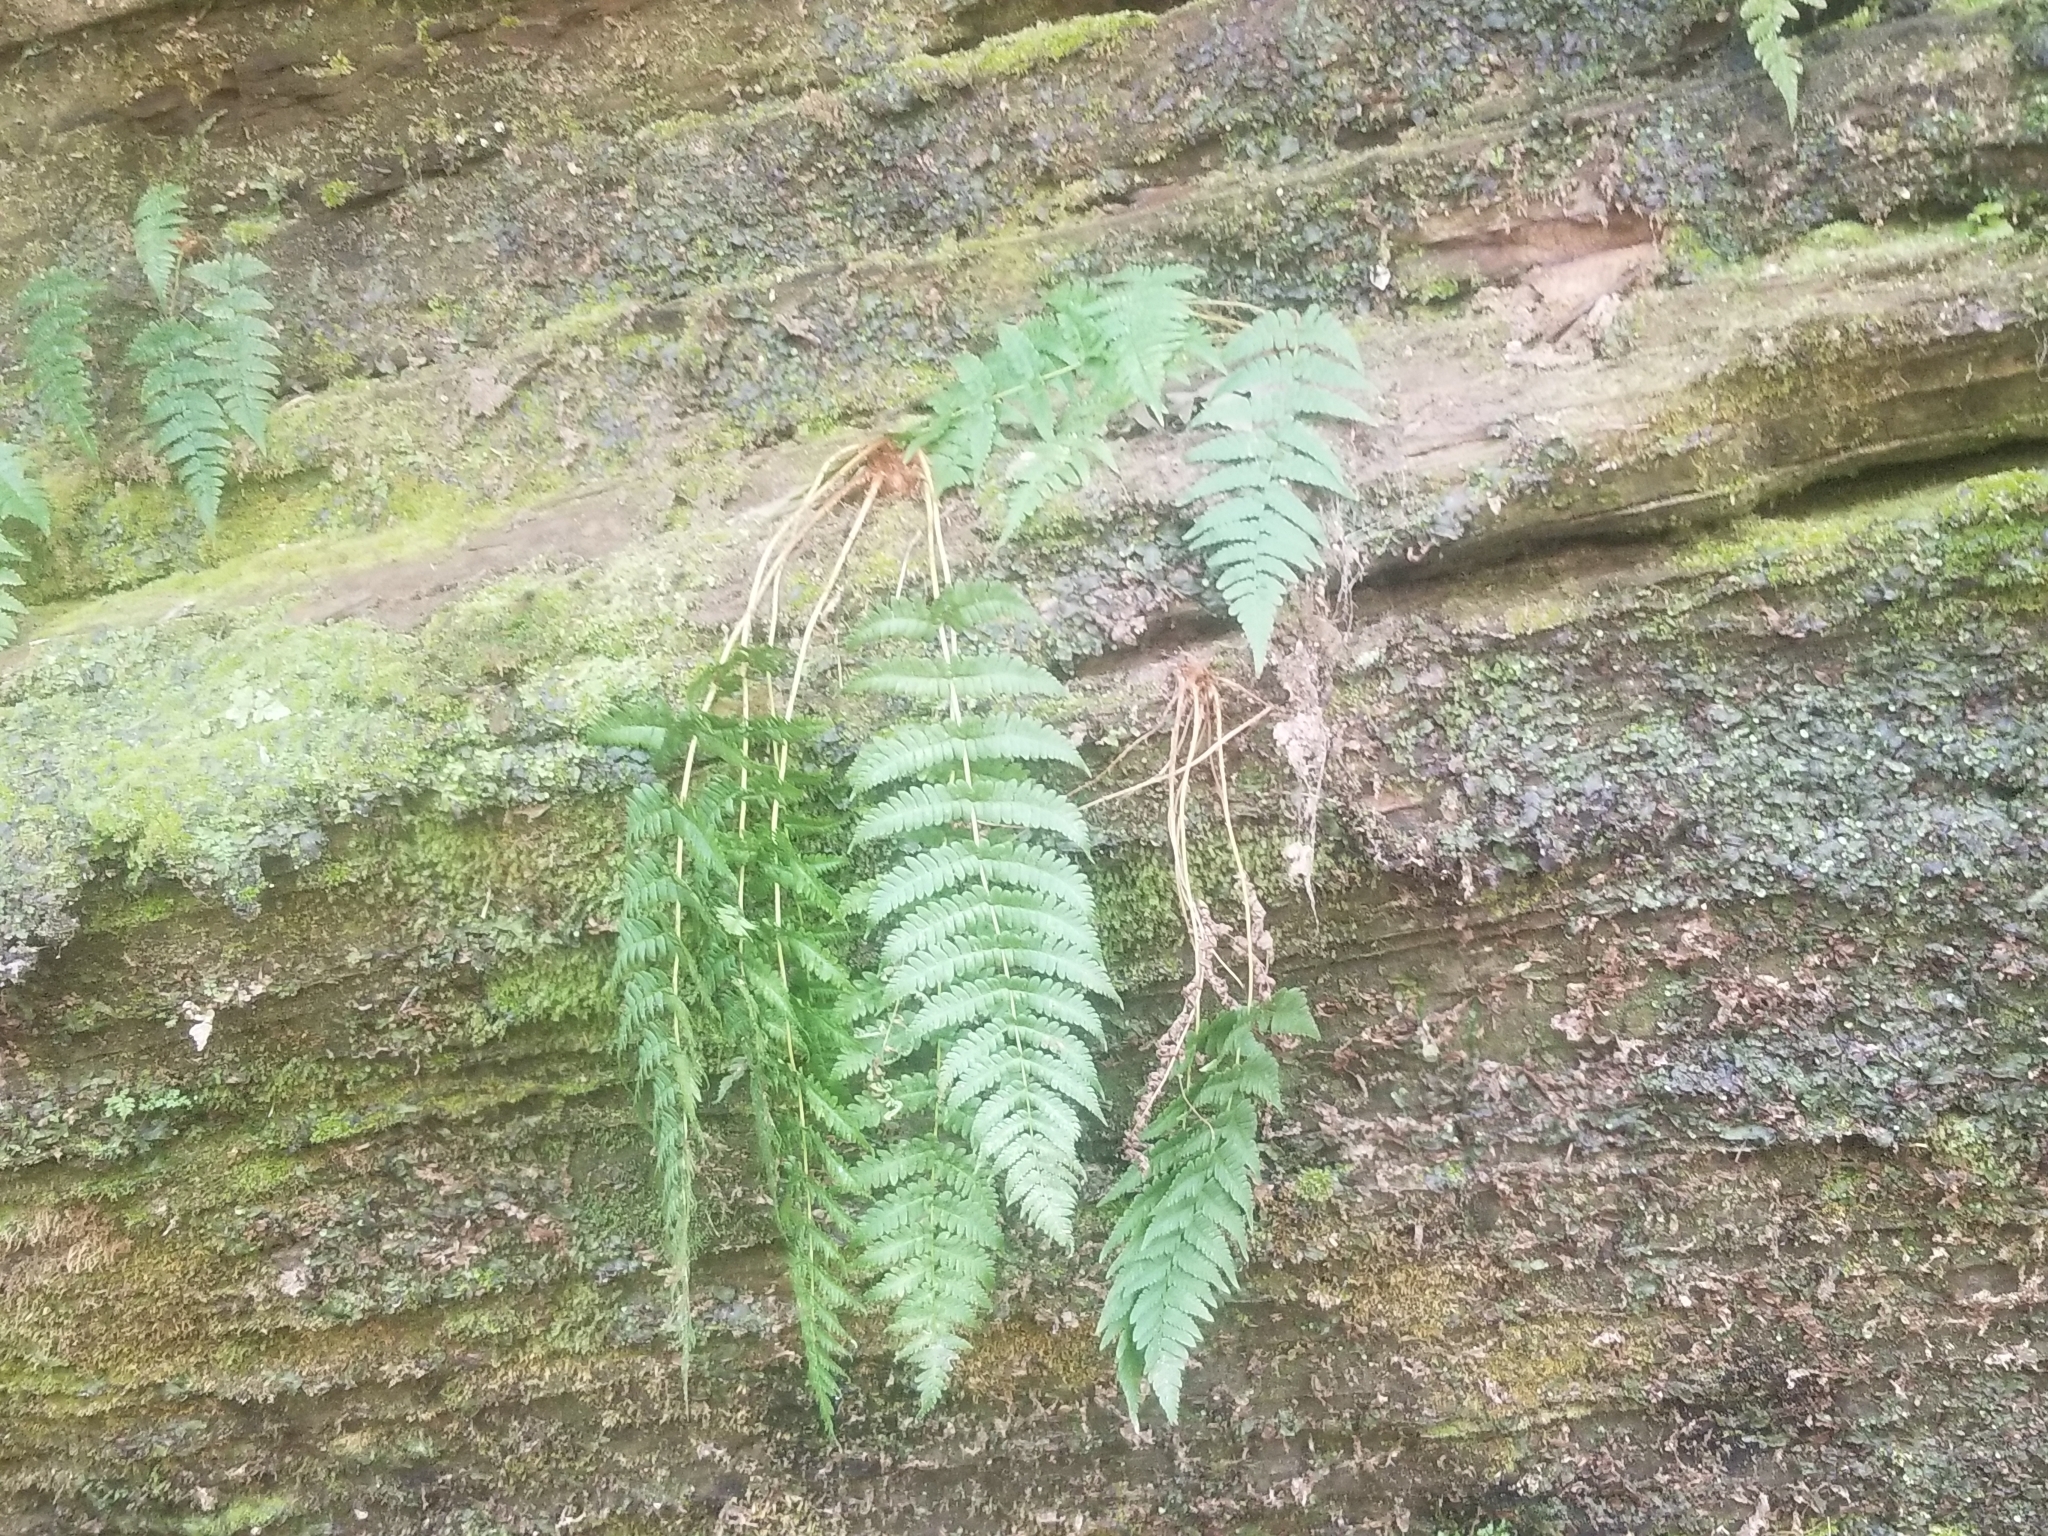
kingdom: Plantae
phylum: Tracheophyta
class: Polypodiopsida
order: Polypodiales
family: Dryopteridaceae
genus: Dryopteris
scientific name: Dryopteris marginalis
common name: Marginal wood fern
